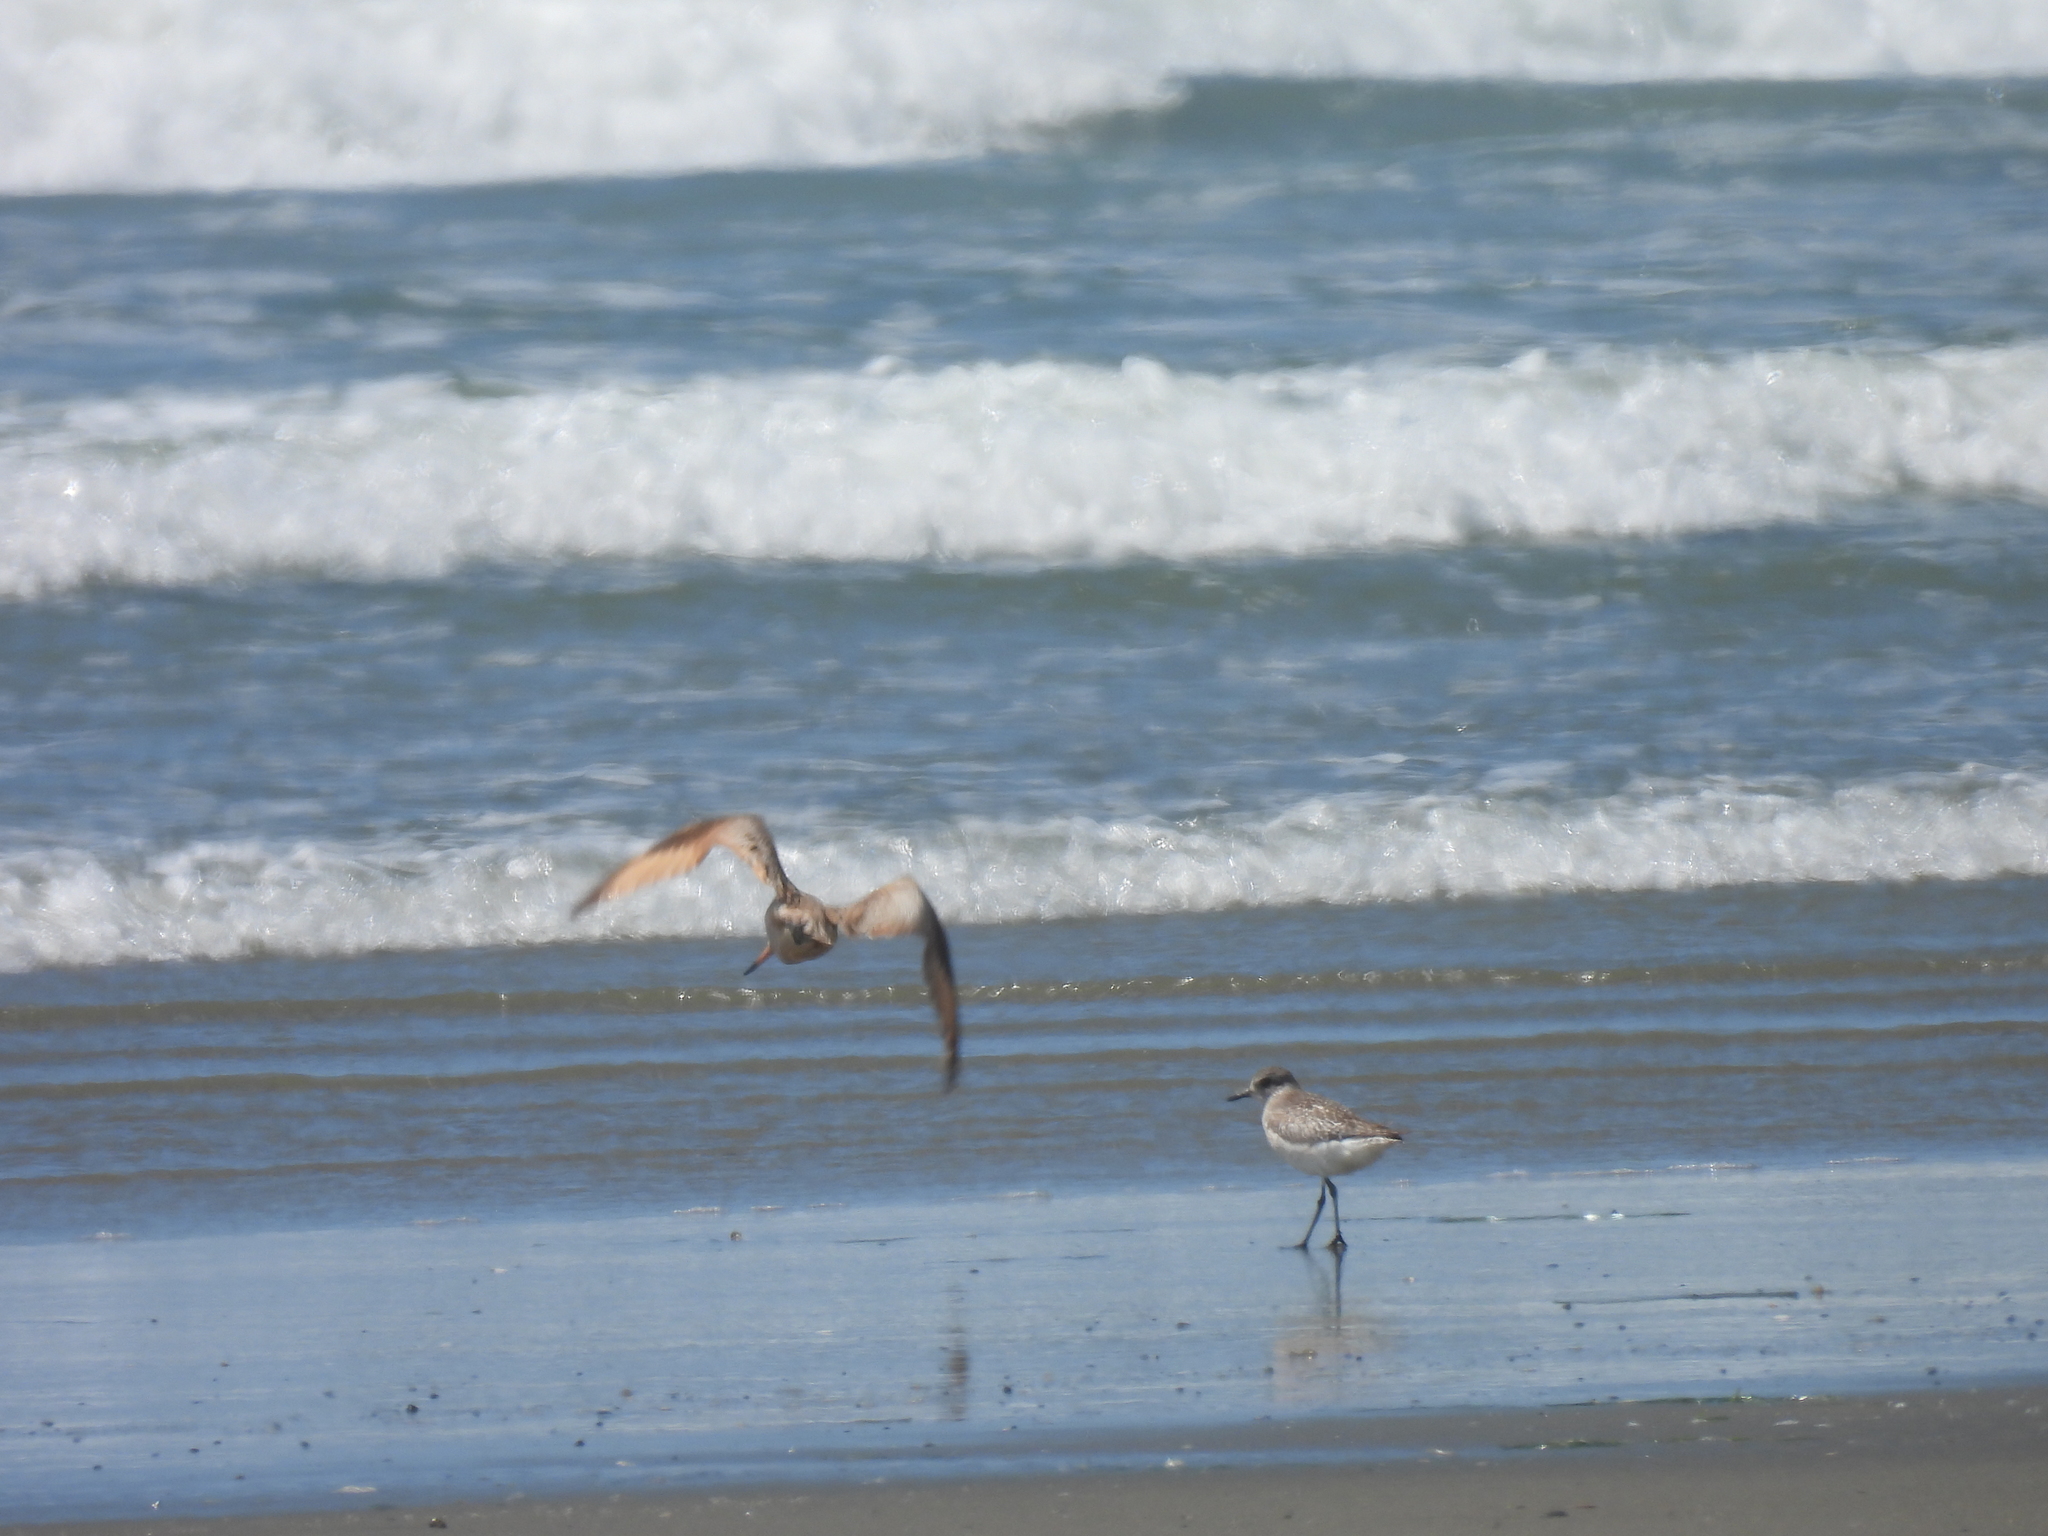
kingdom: Animalia
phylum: Chordata
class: Aves
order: Charadriiformes
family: Scolopacidae
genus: Limosa
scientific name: Limosa fedoa
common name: Marbled godwit
